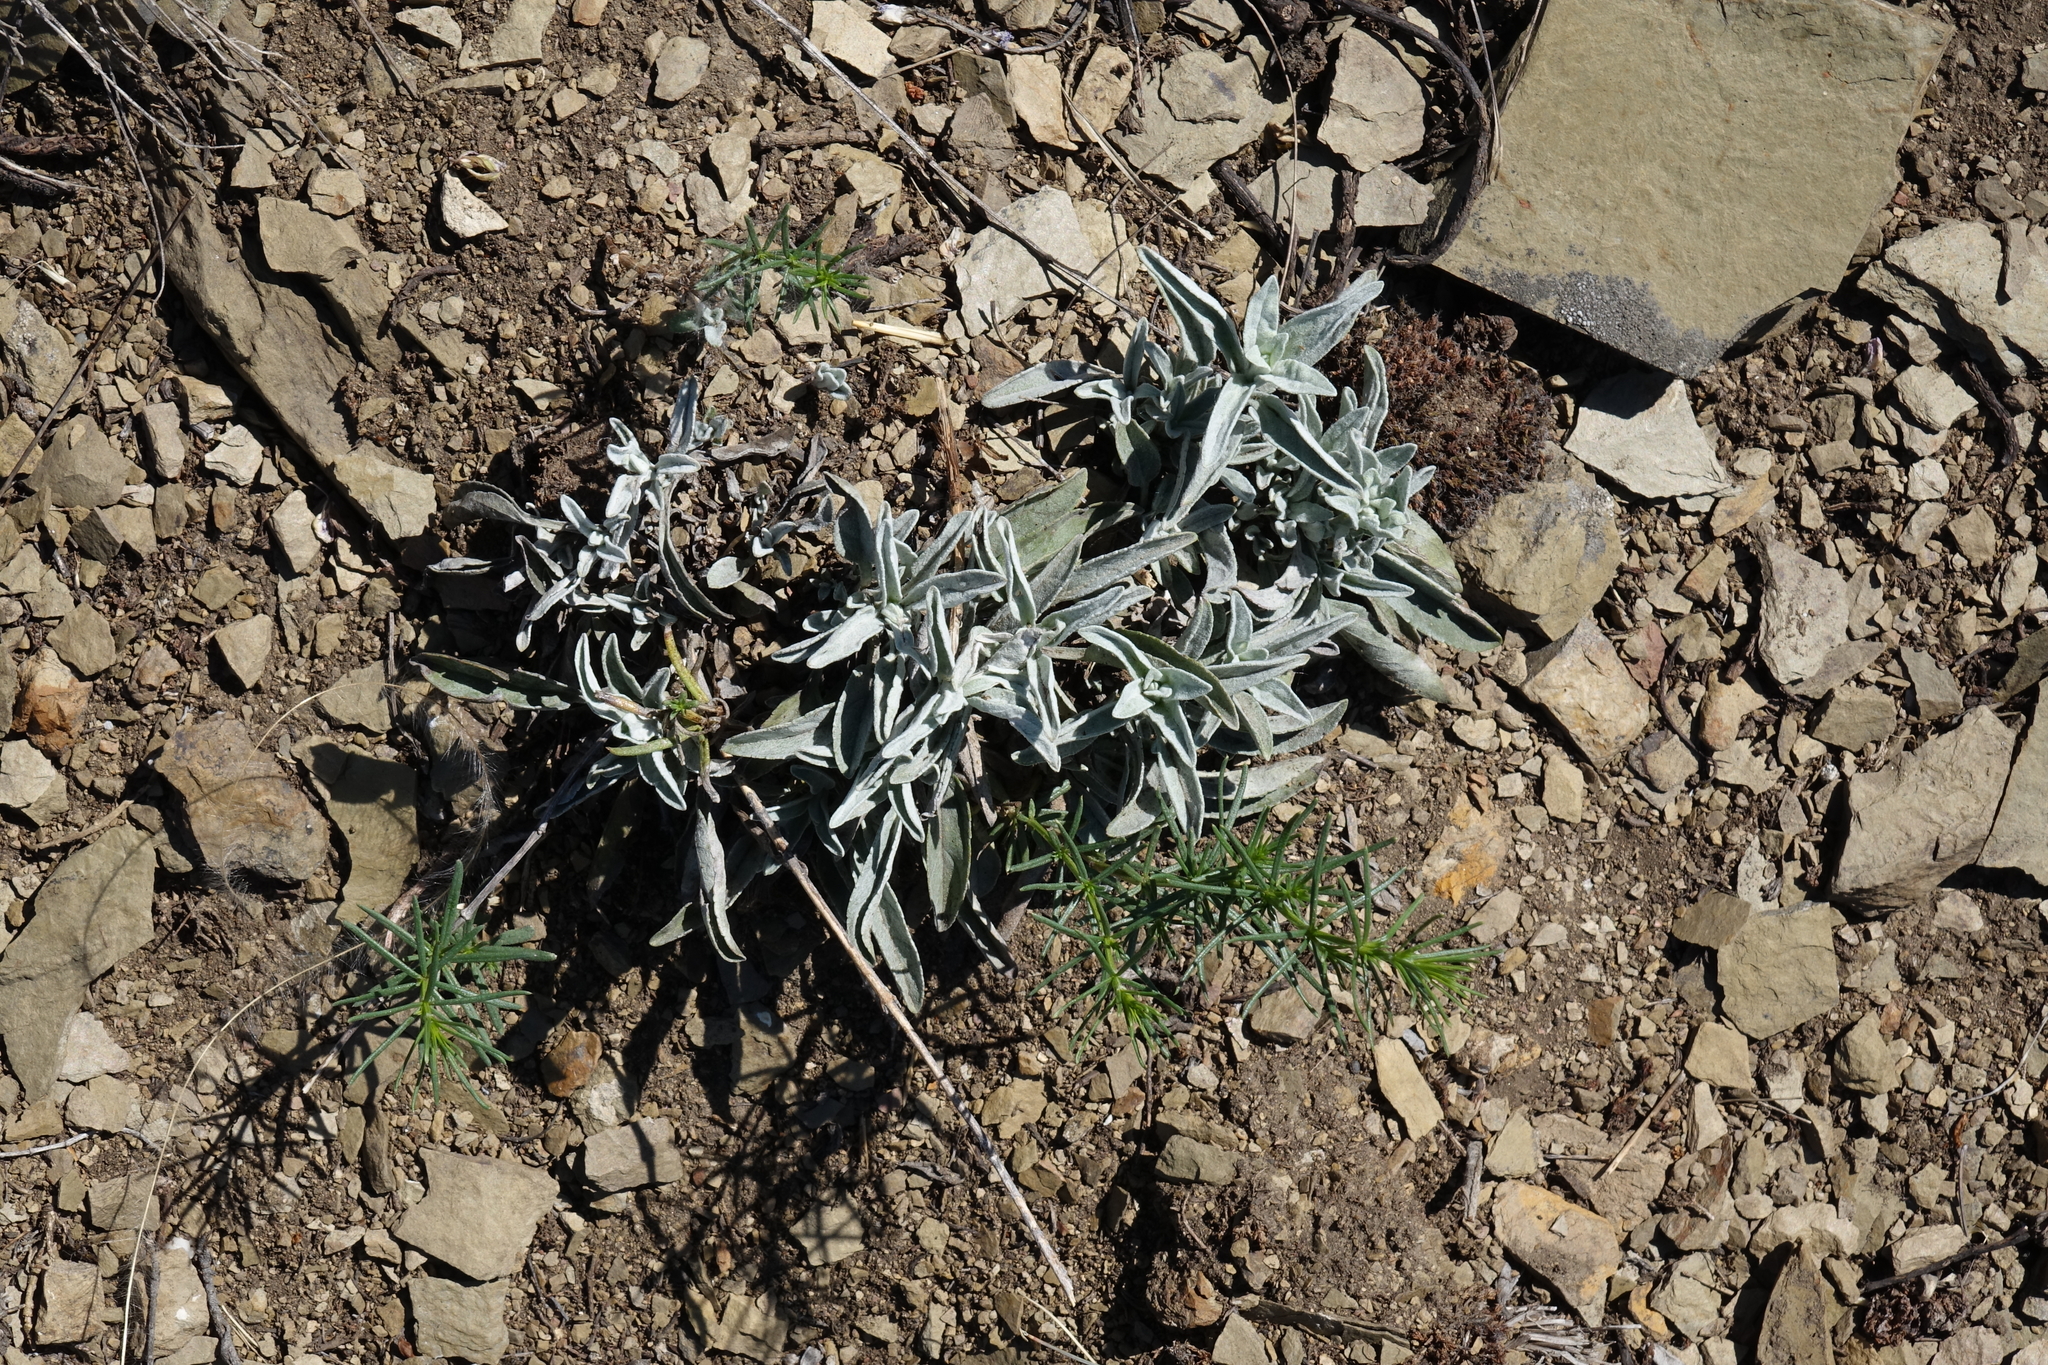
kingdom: Plantae
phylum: Tracheophyta
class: Magnoliopsida
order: Lamiales
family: Plantaginaceae
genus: Veronica
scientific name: Veronica incana
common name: Silver speedwell
